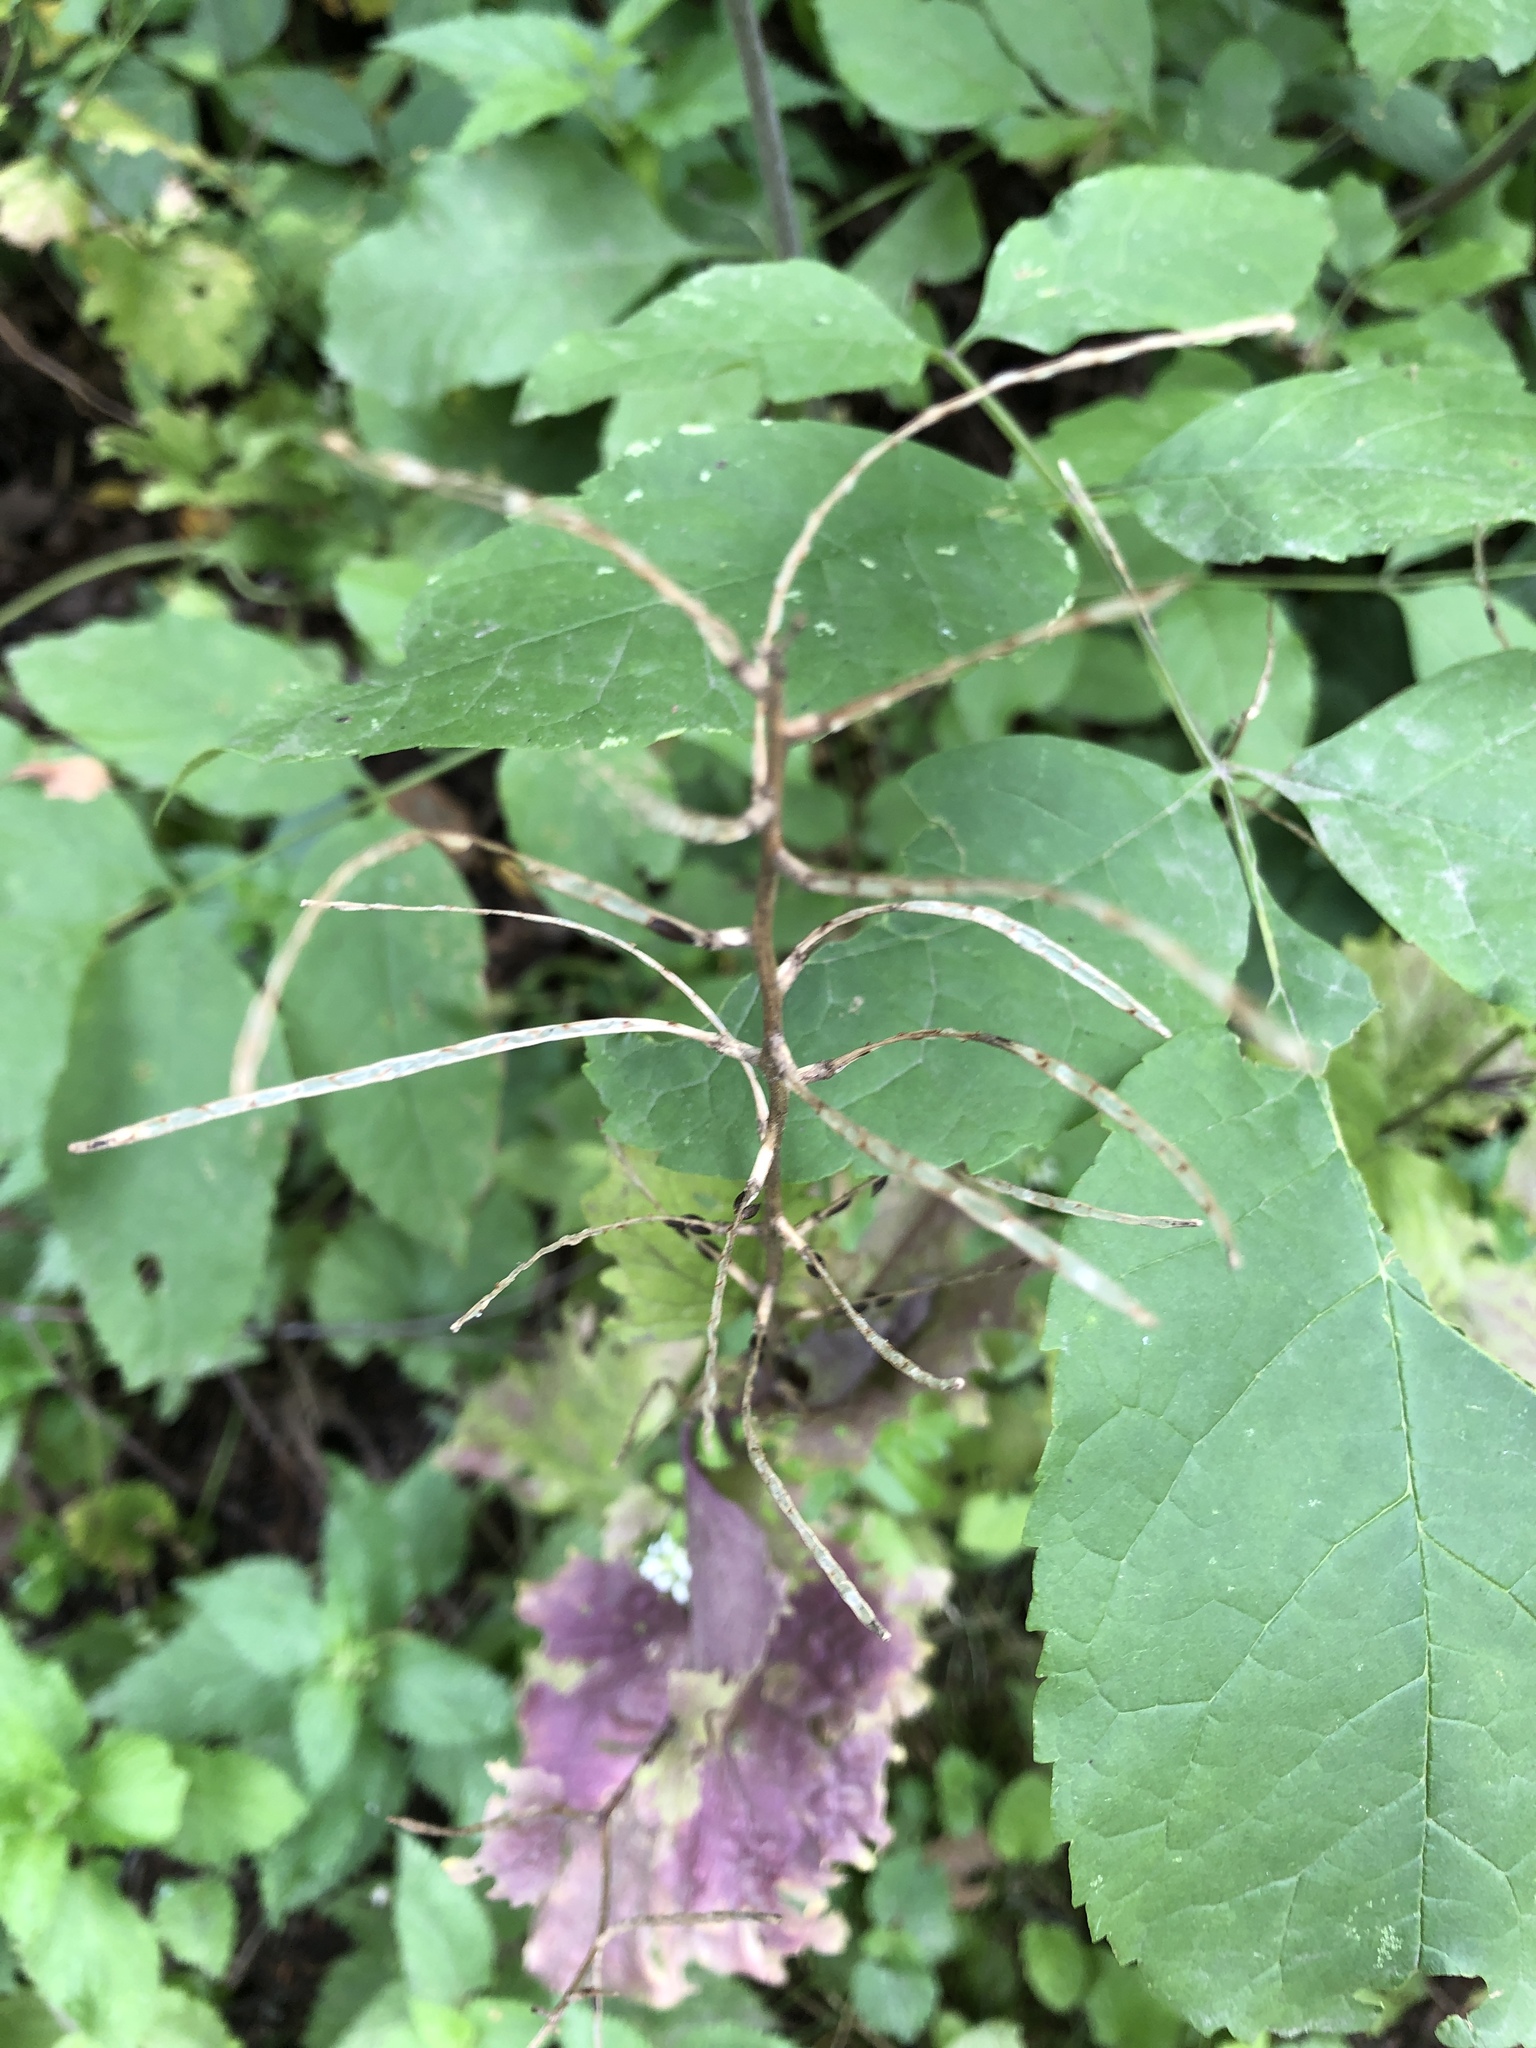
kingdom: Plantae
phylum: Tracheophyta
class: Magnoliopsida
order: Brassicales
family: Brassicaceae
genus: Alliaria
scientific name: Alliaria petiolata
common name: Garlic mustard
